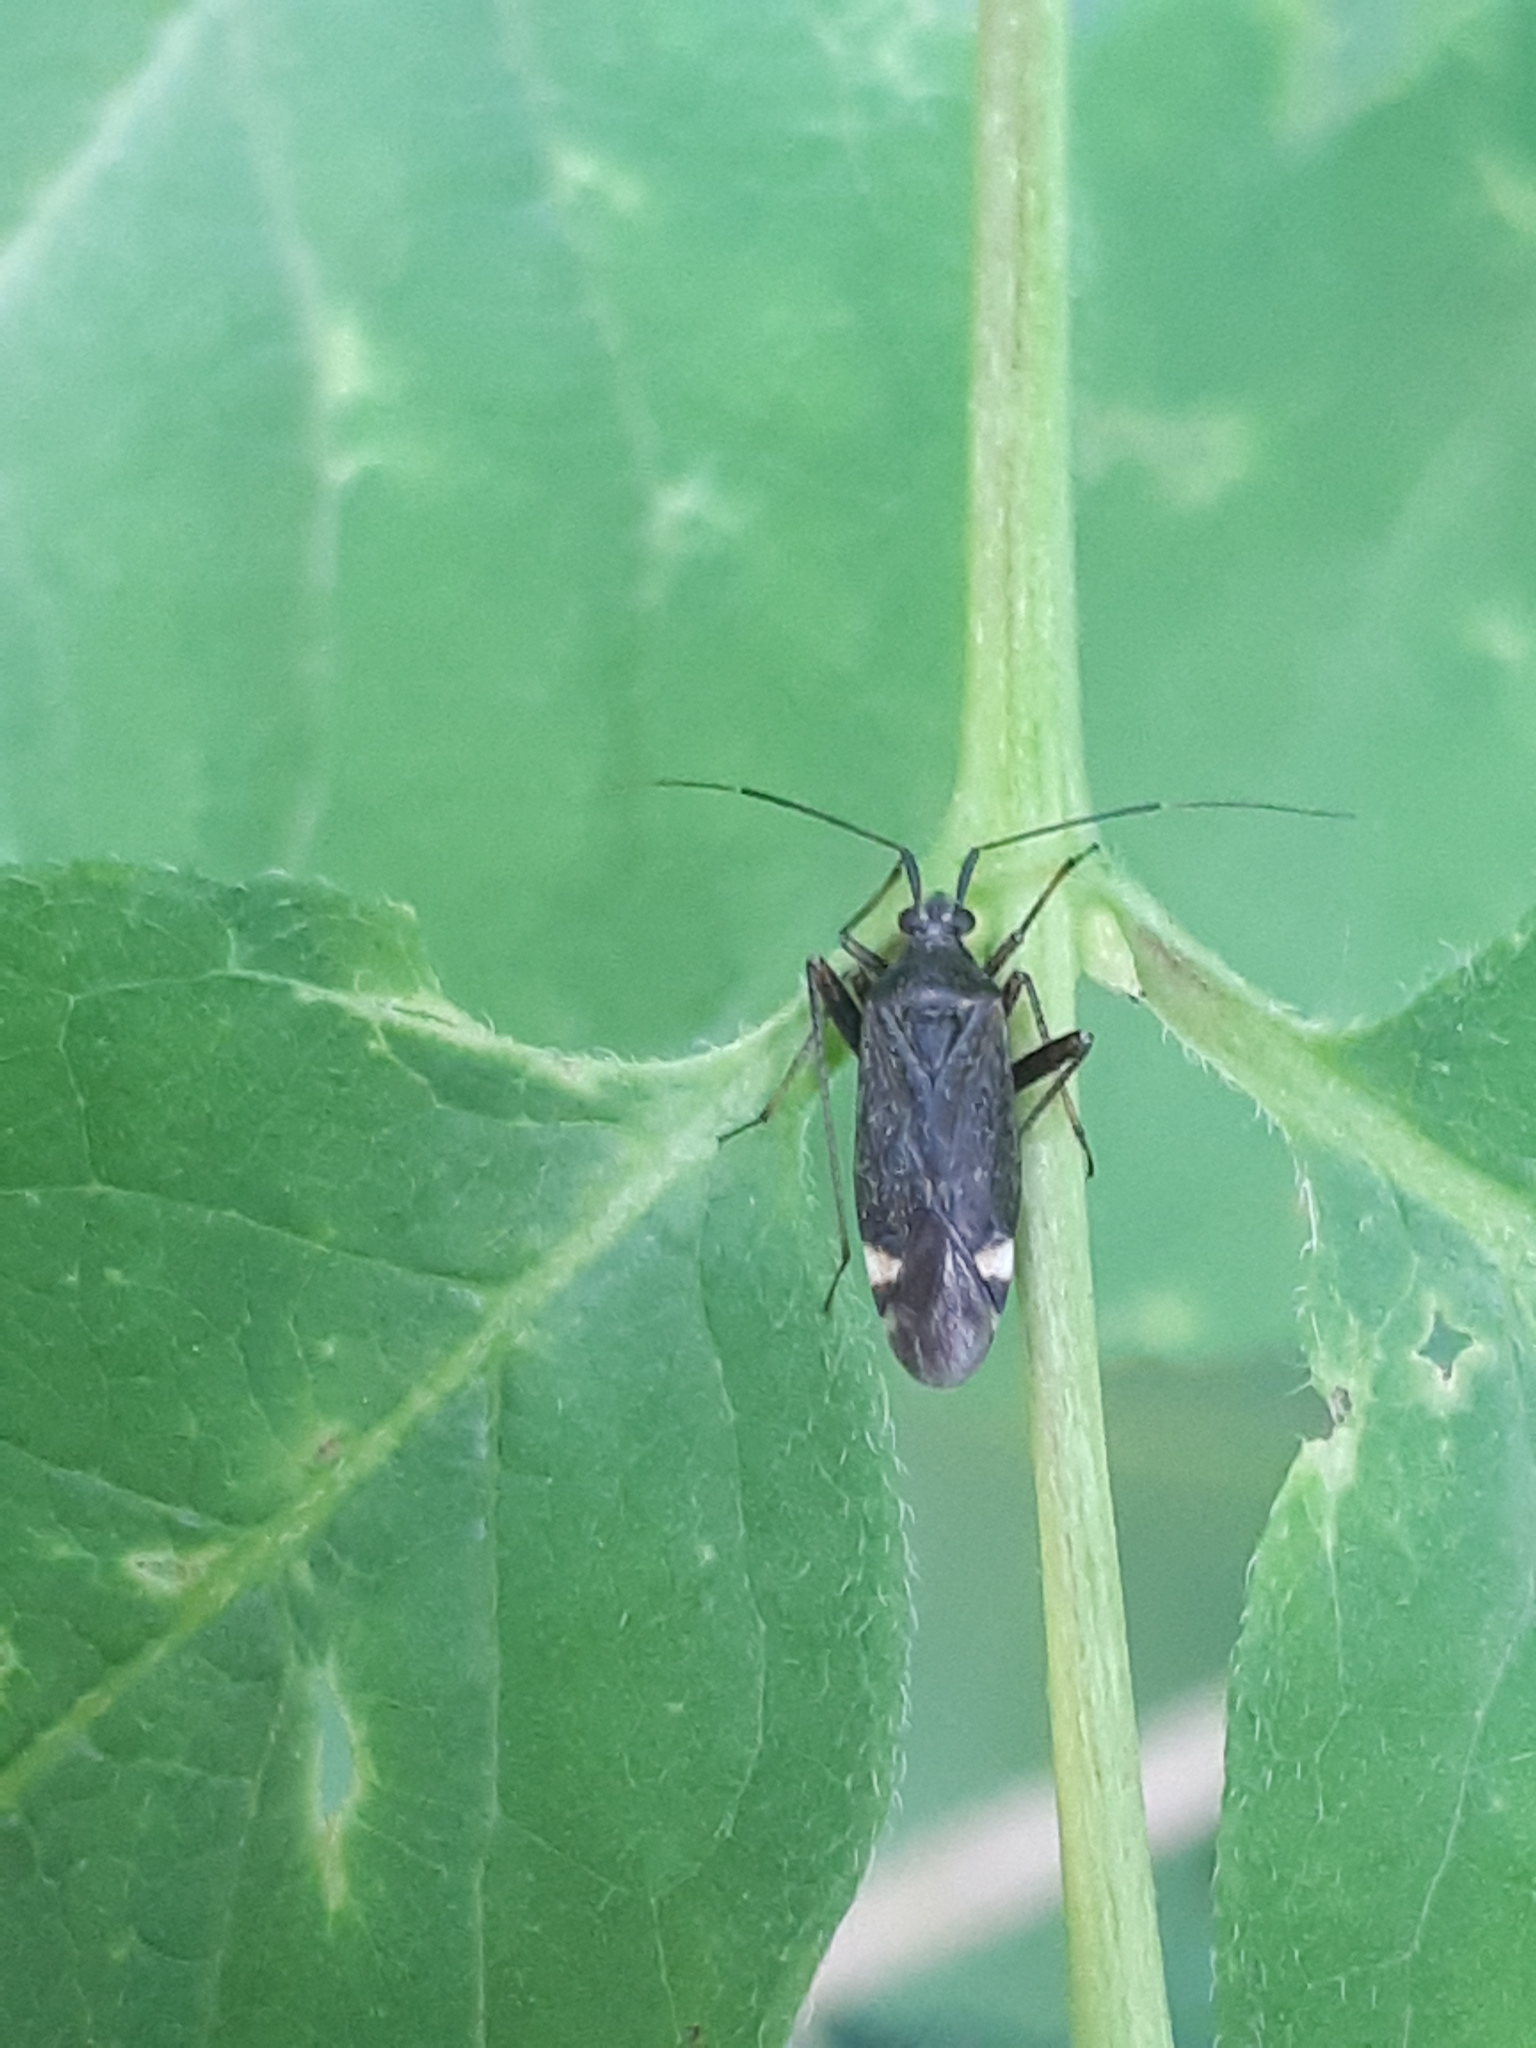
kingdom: Animalia
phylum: Arthropoda
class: Insecta
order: Hemiptera
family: Miridae
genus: Closterotomus
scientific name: Closterotomus fulvomaculatus
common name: Spotted plant bug
